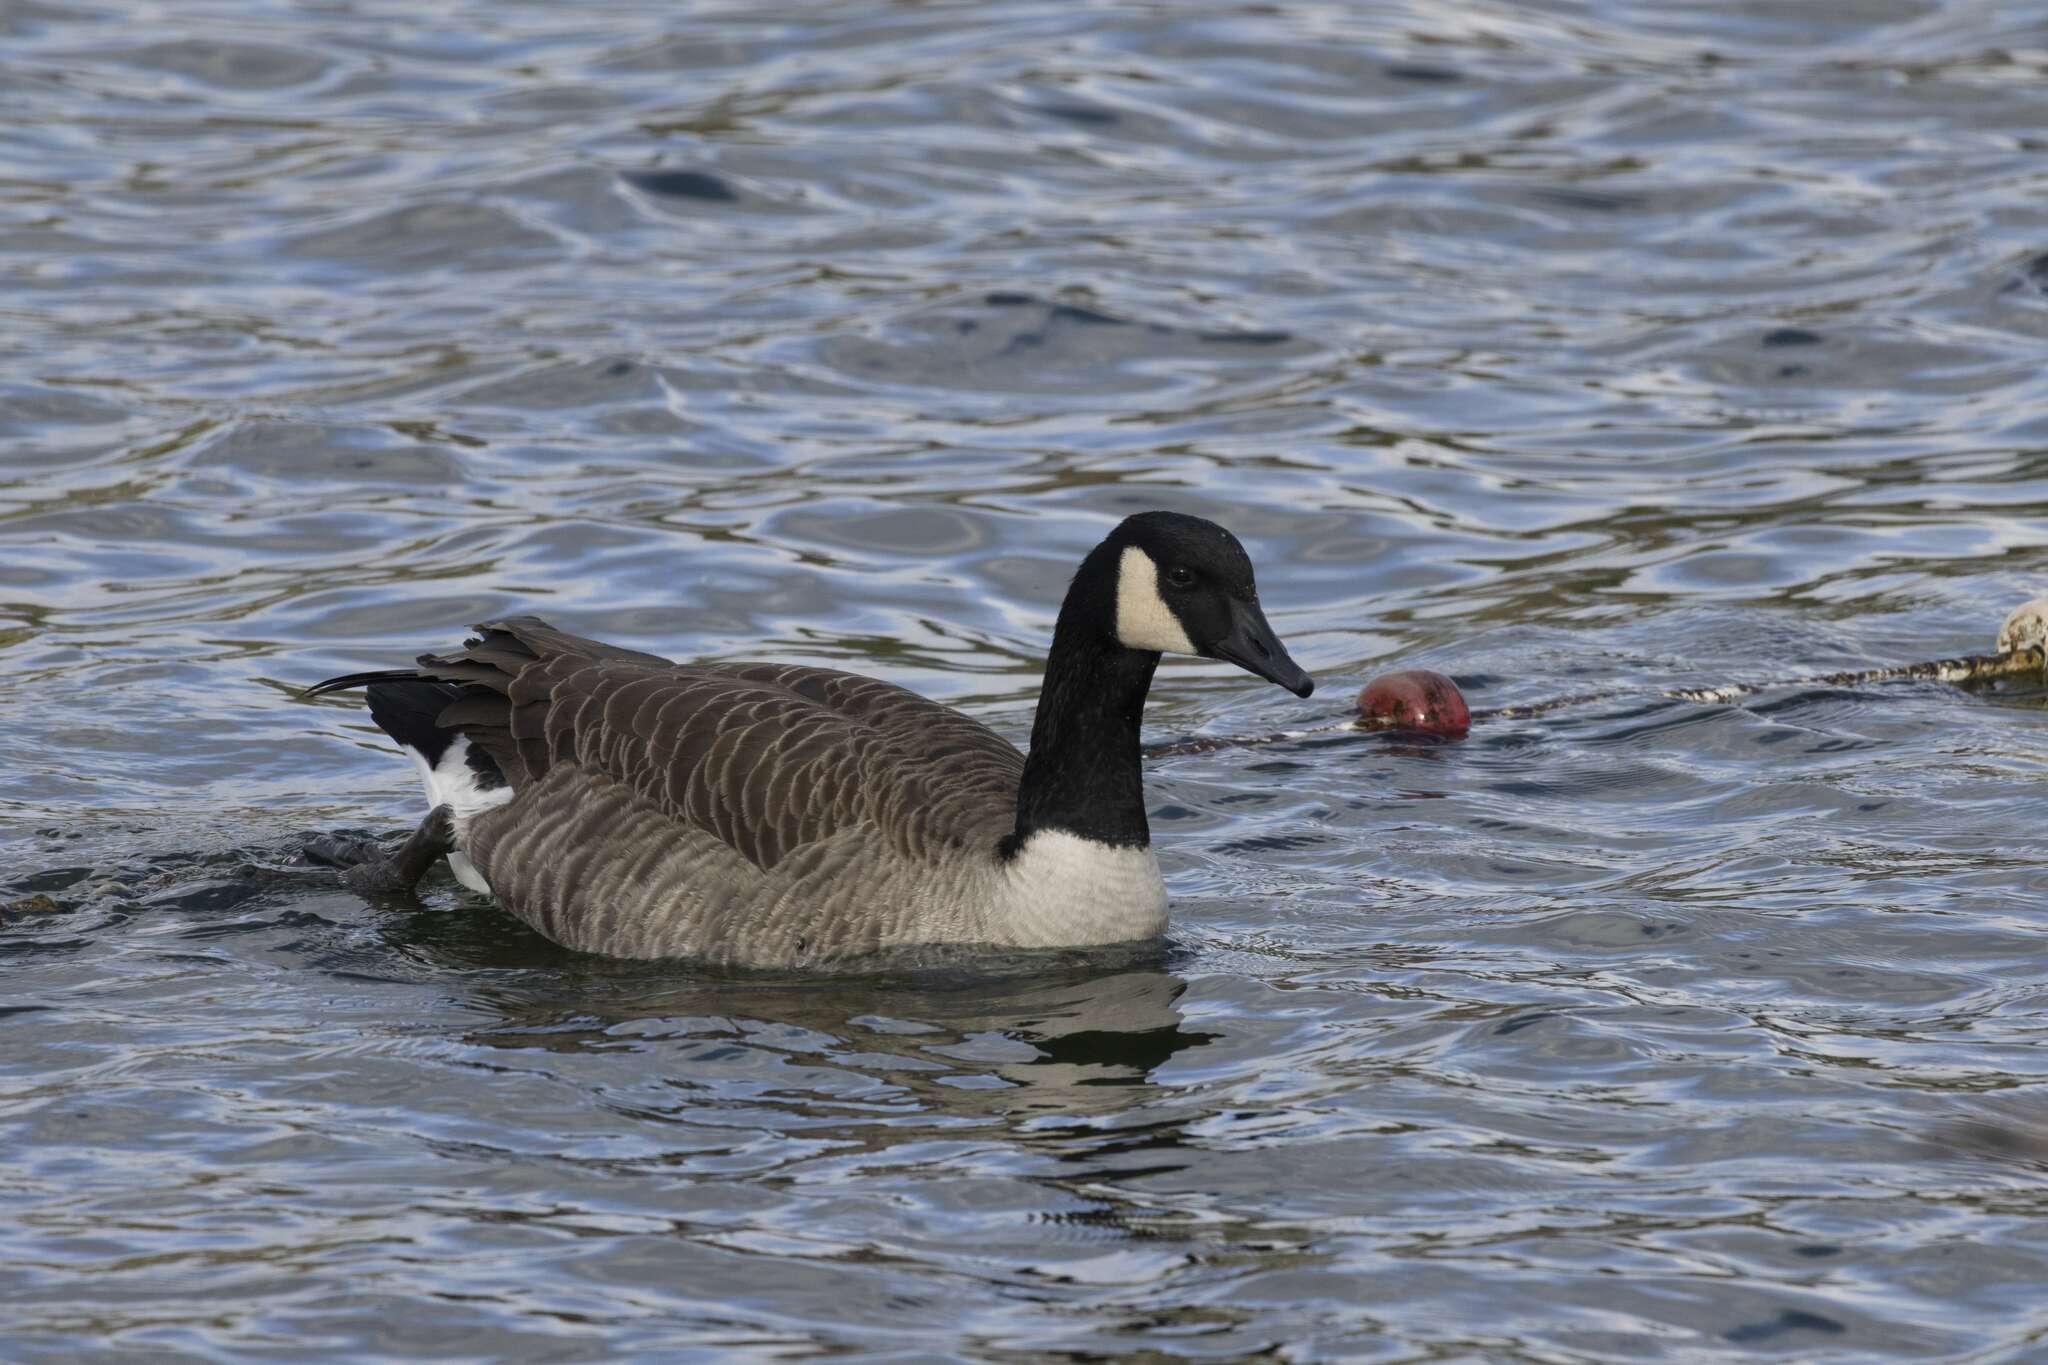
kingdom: Animalia
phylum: Chordata
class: Aves
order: Anseriformes
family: Anatidae
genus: Branta
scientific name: Branta canadensis
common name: Canada goose
